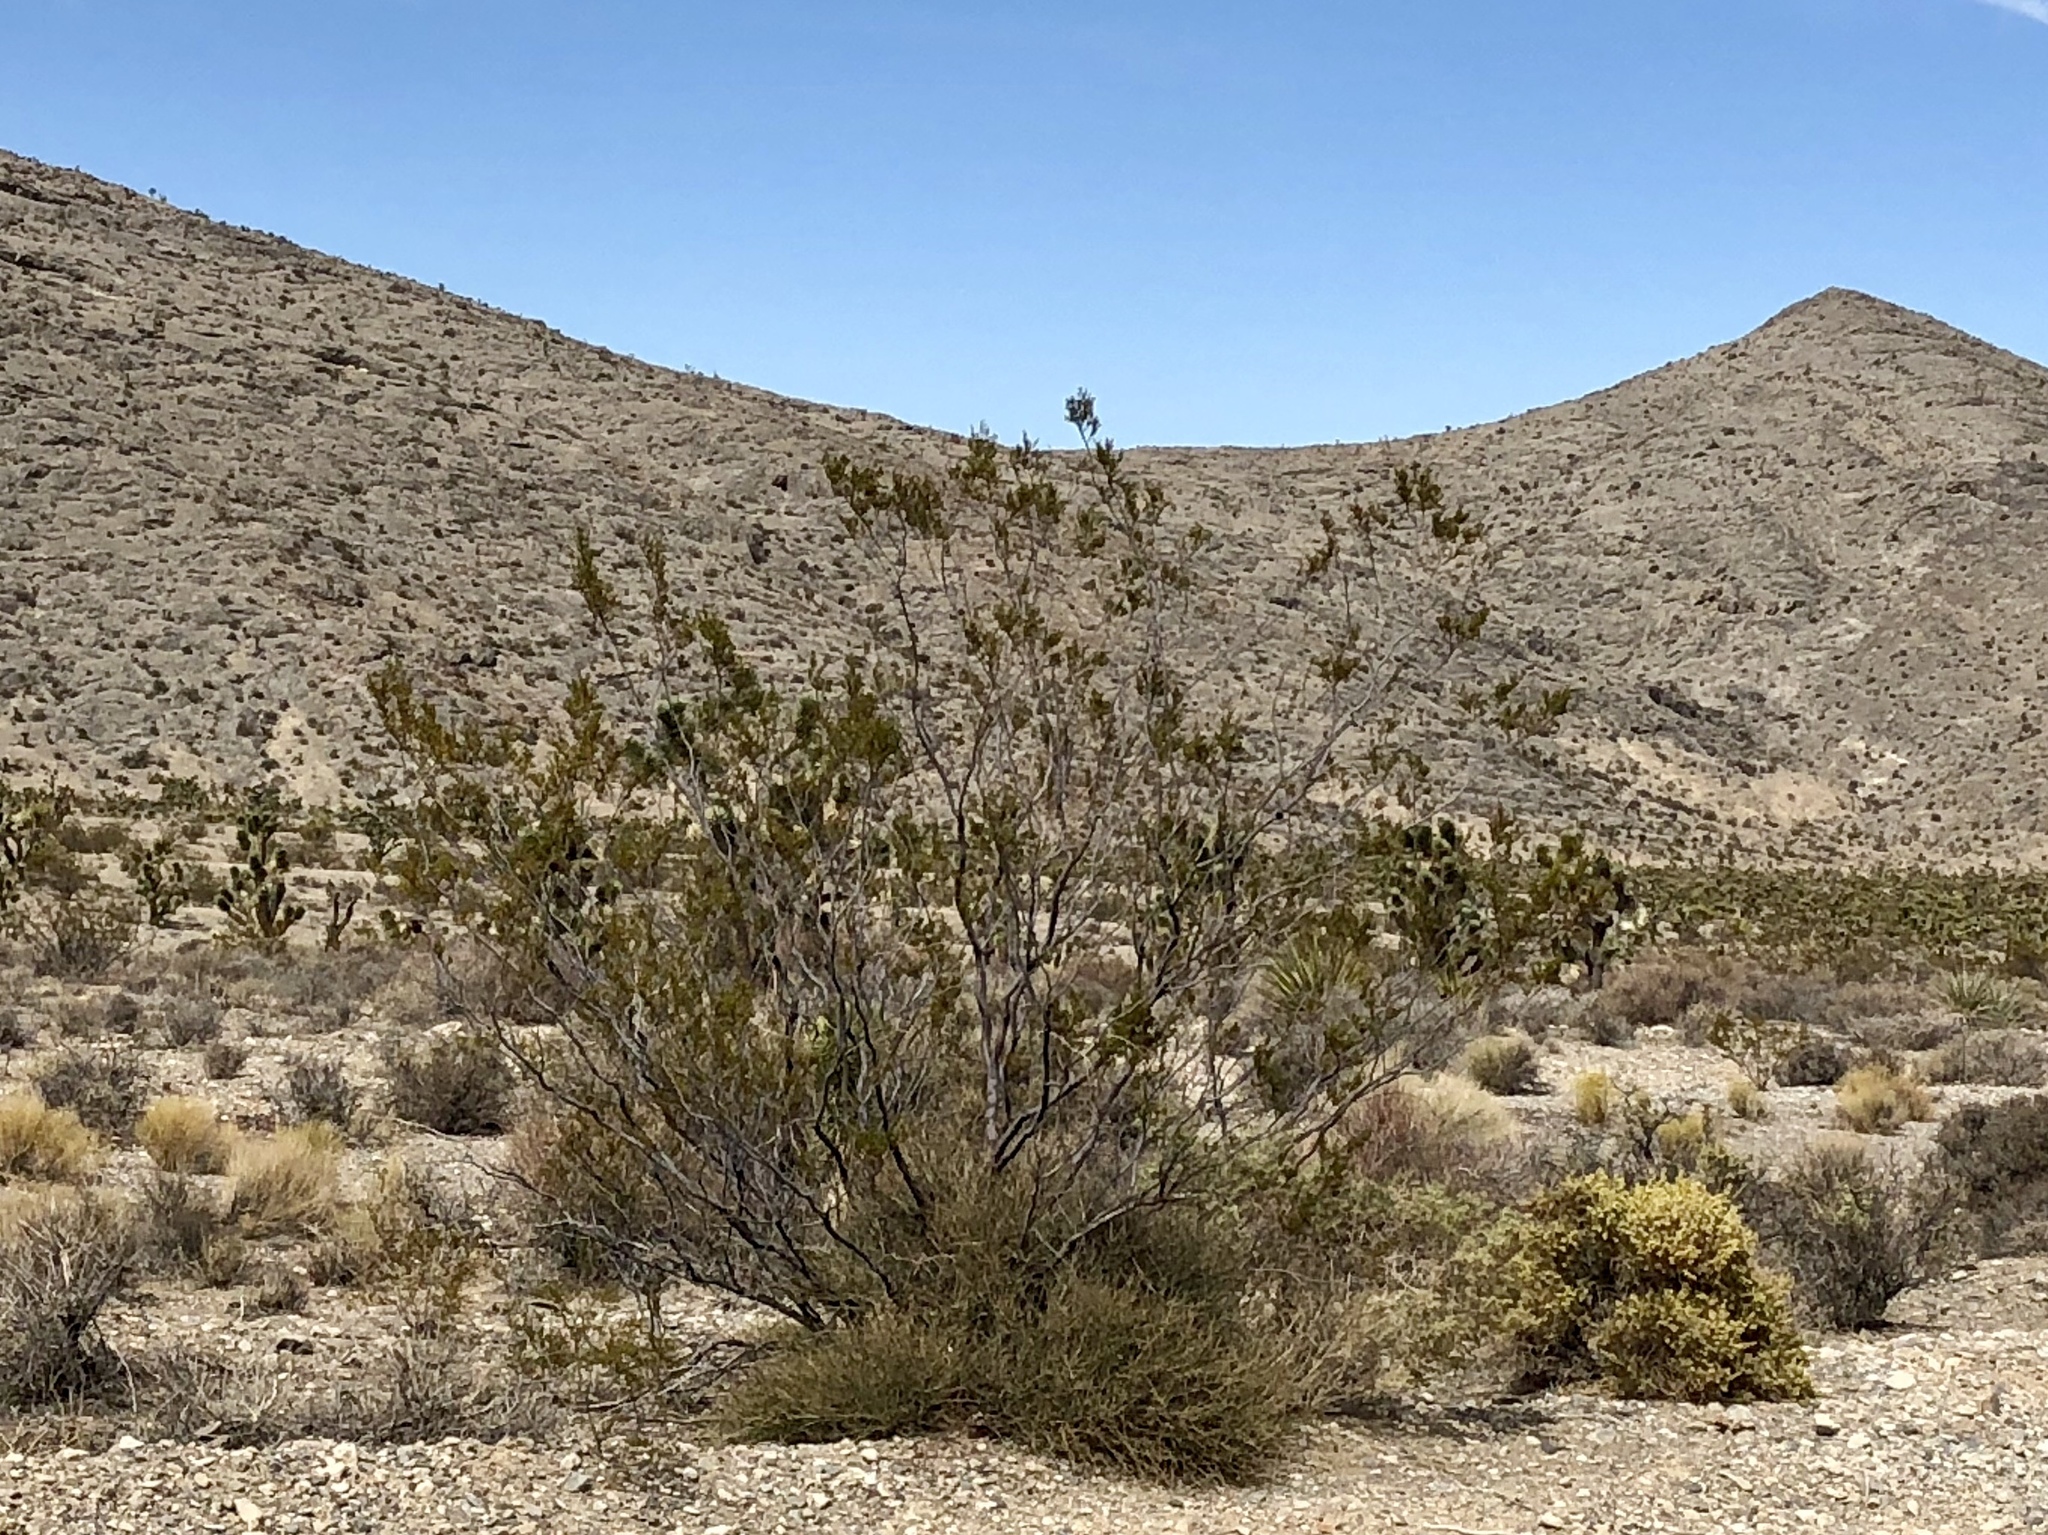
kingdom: Plantae
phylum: Tracheophyta
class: Magnoliopsida
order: Zygophyllales
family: Zygophyllaceae
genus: Larrea
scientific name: Larrea tridentata
